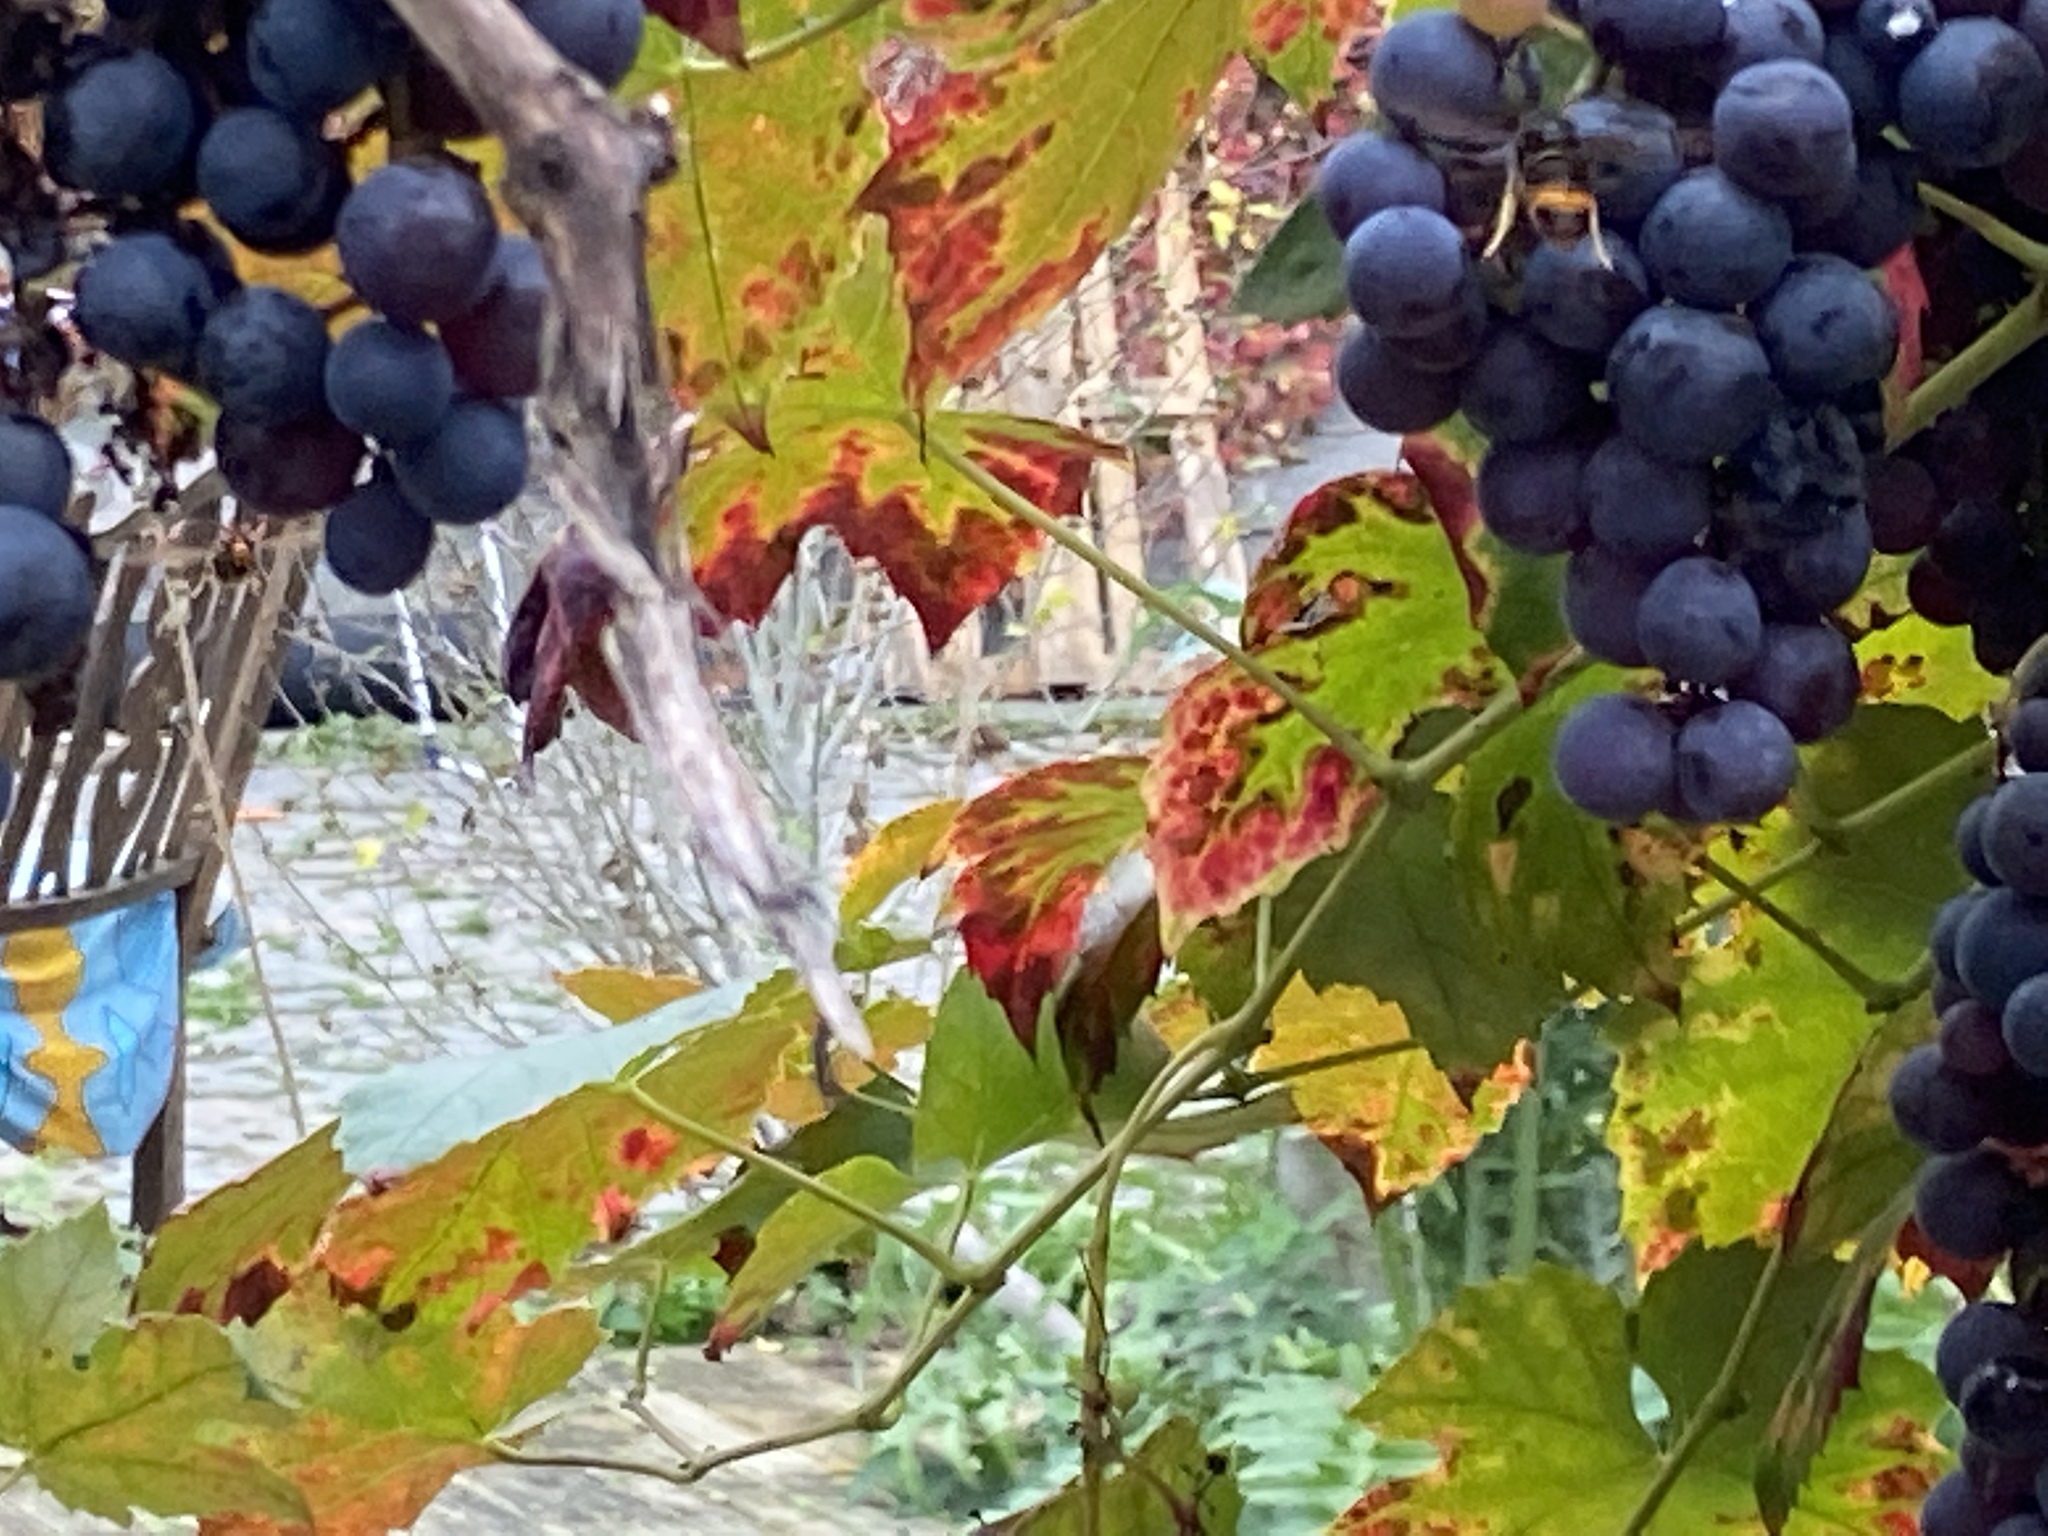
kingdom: Animalia
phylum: Arthropoda
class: Insecta
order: Hymenoptera
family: Vespidae
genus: Vespa
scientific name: Vespa velutina
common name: Asian hornet
